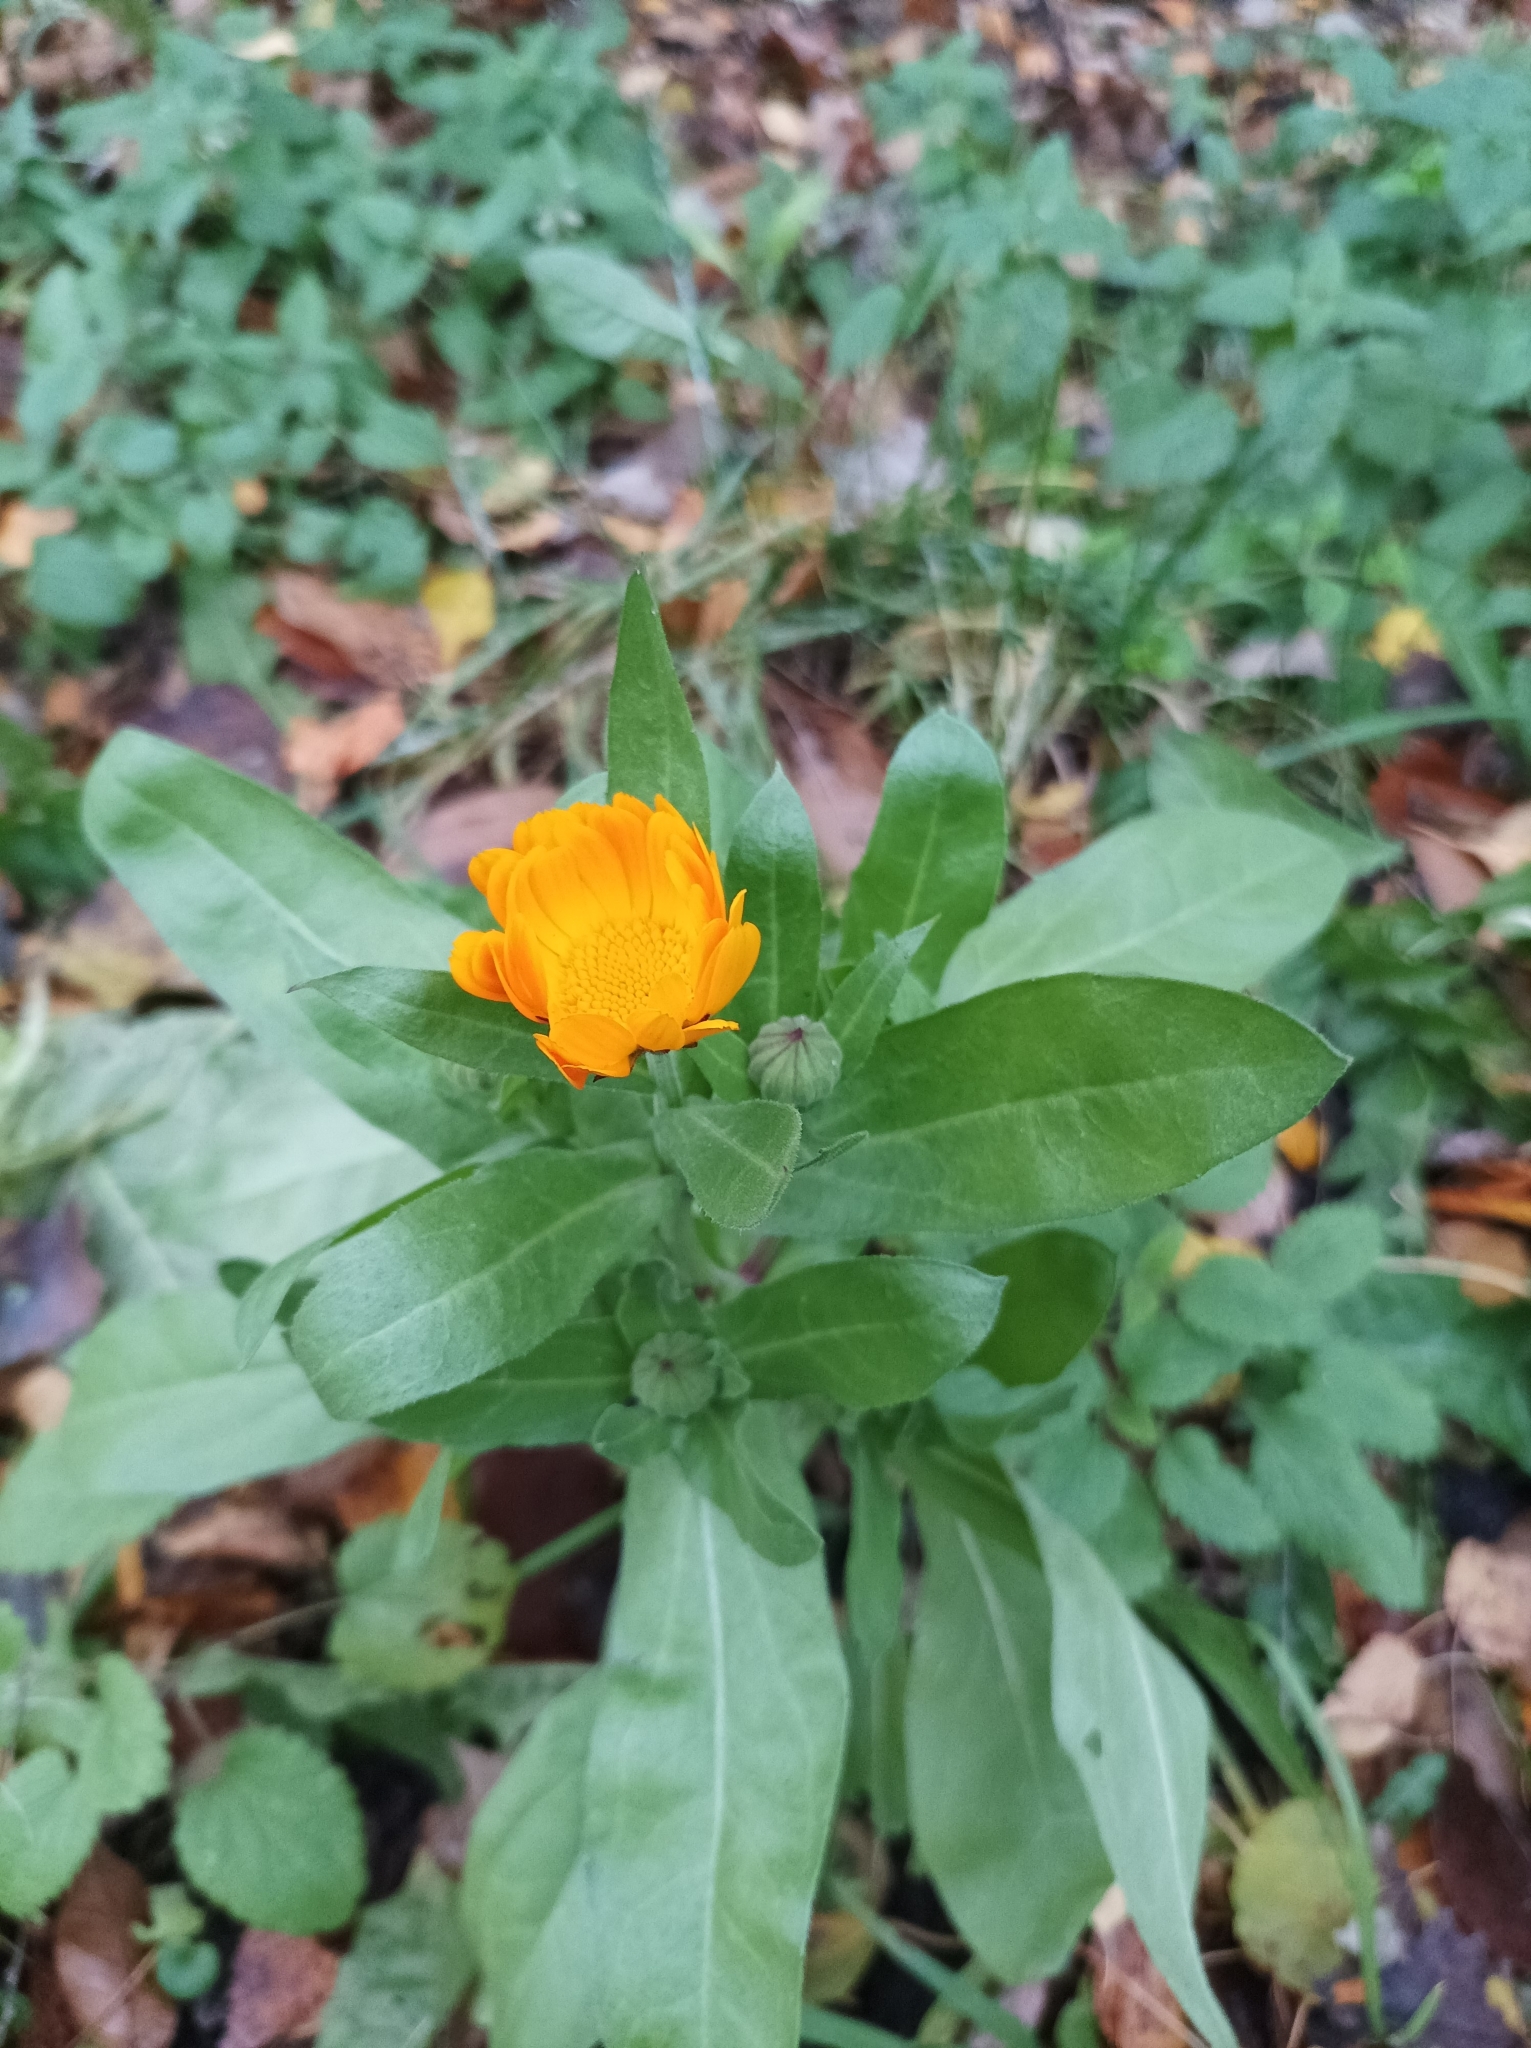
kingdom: Plantae
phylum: Tracheophyta
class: Magnoliopsida
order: Asterales
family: Asteraceae
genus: Calendula
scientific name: Calendula officinalis
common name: Pot marigold
